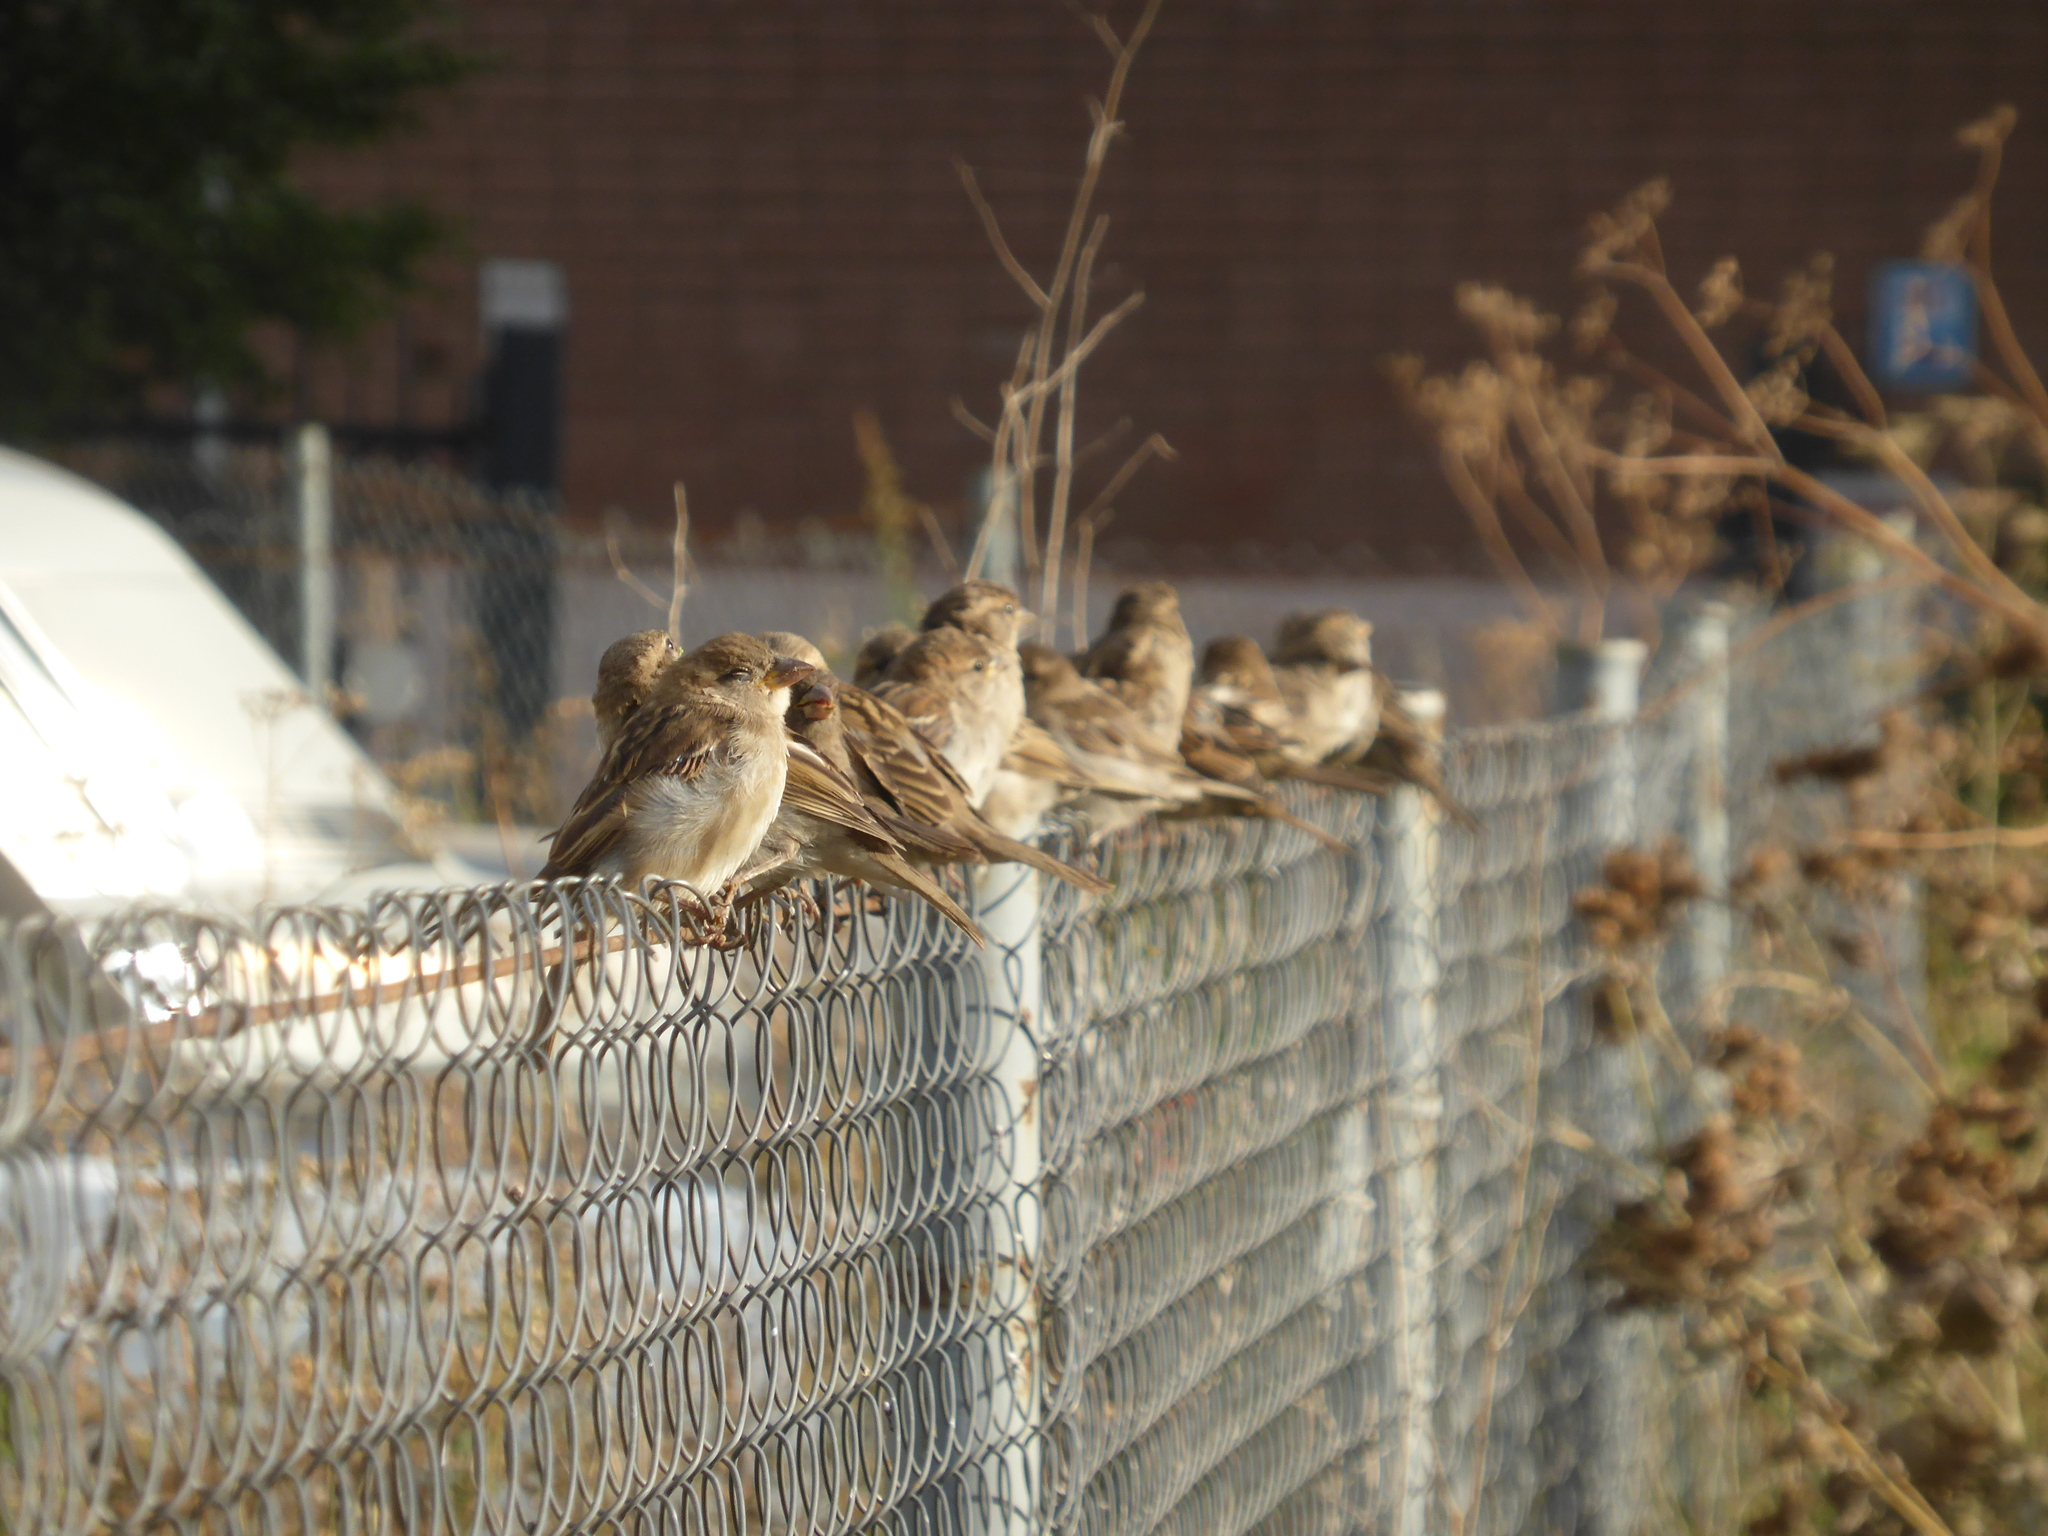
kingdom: Animalia
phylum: Chordata
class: Aves
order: Passeriformes
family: Passeridae
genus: Passer
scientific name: Passer domesticus
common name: House sparrow
